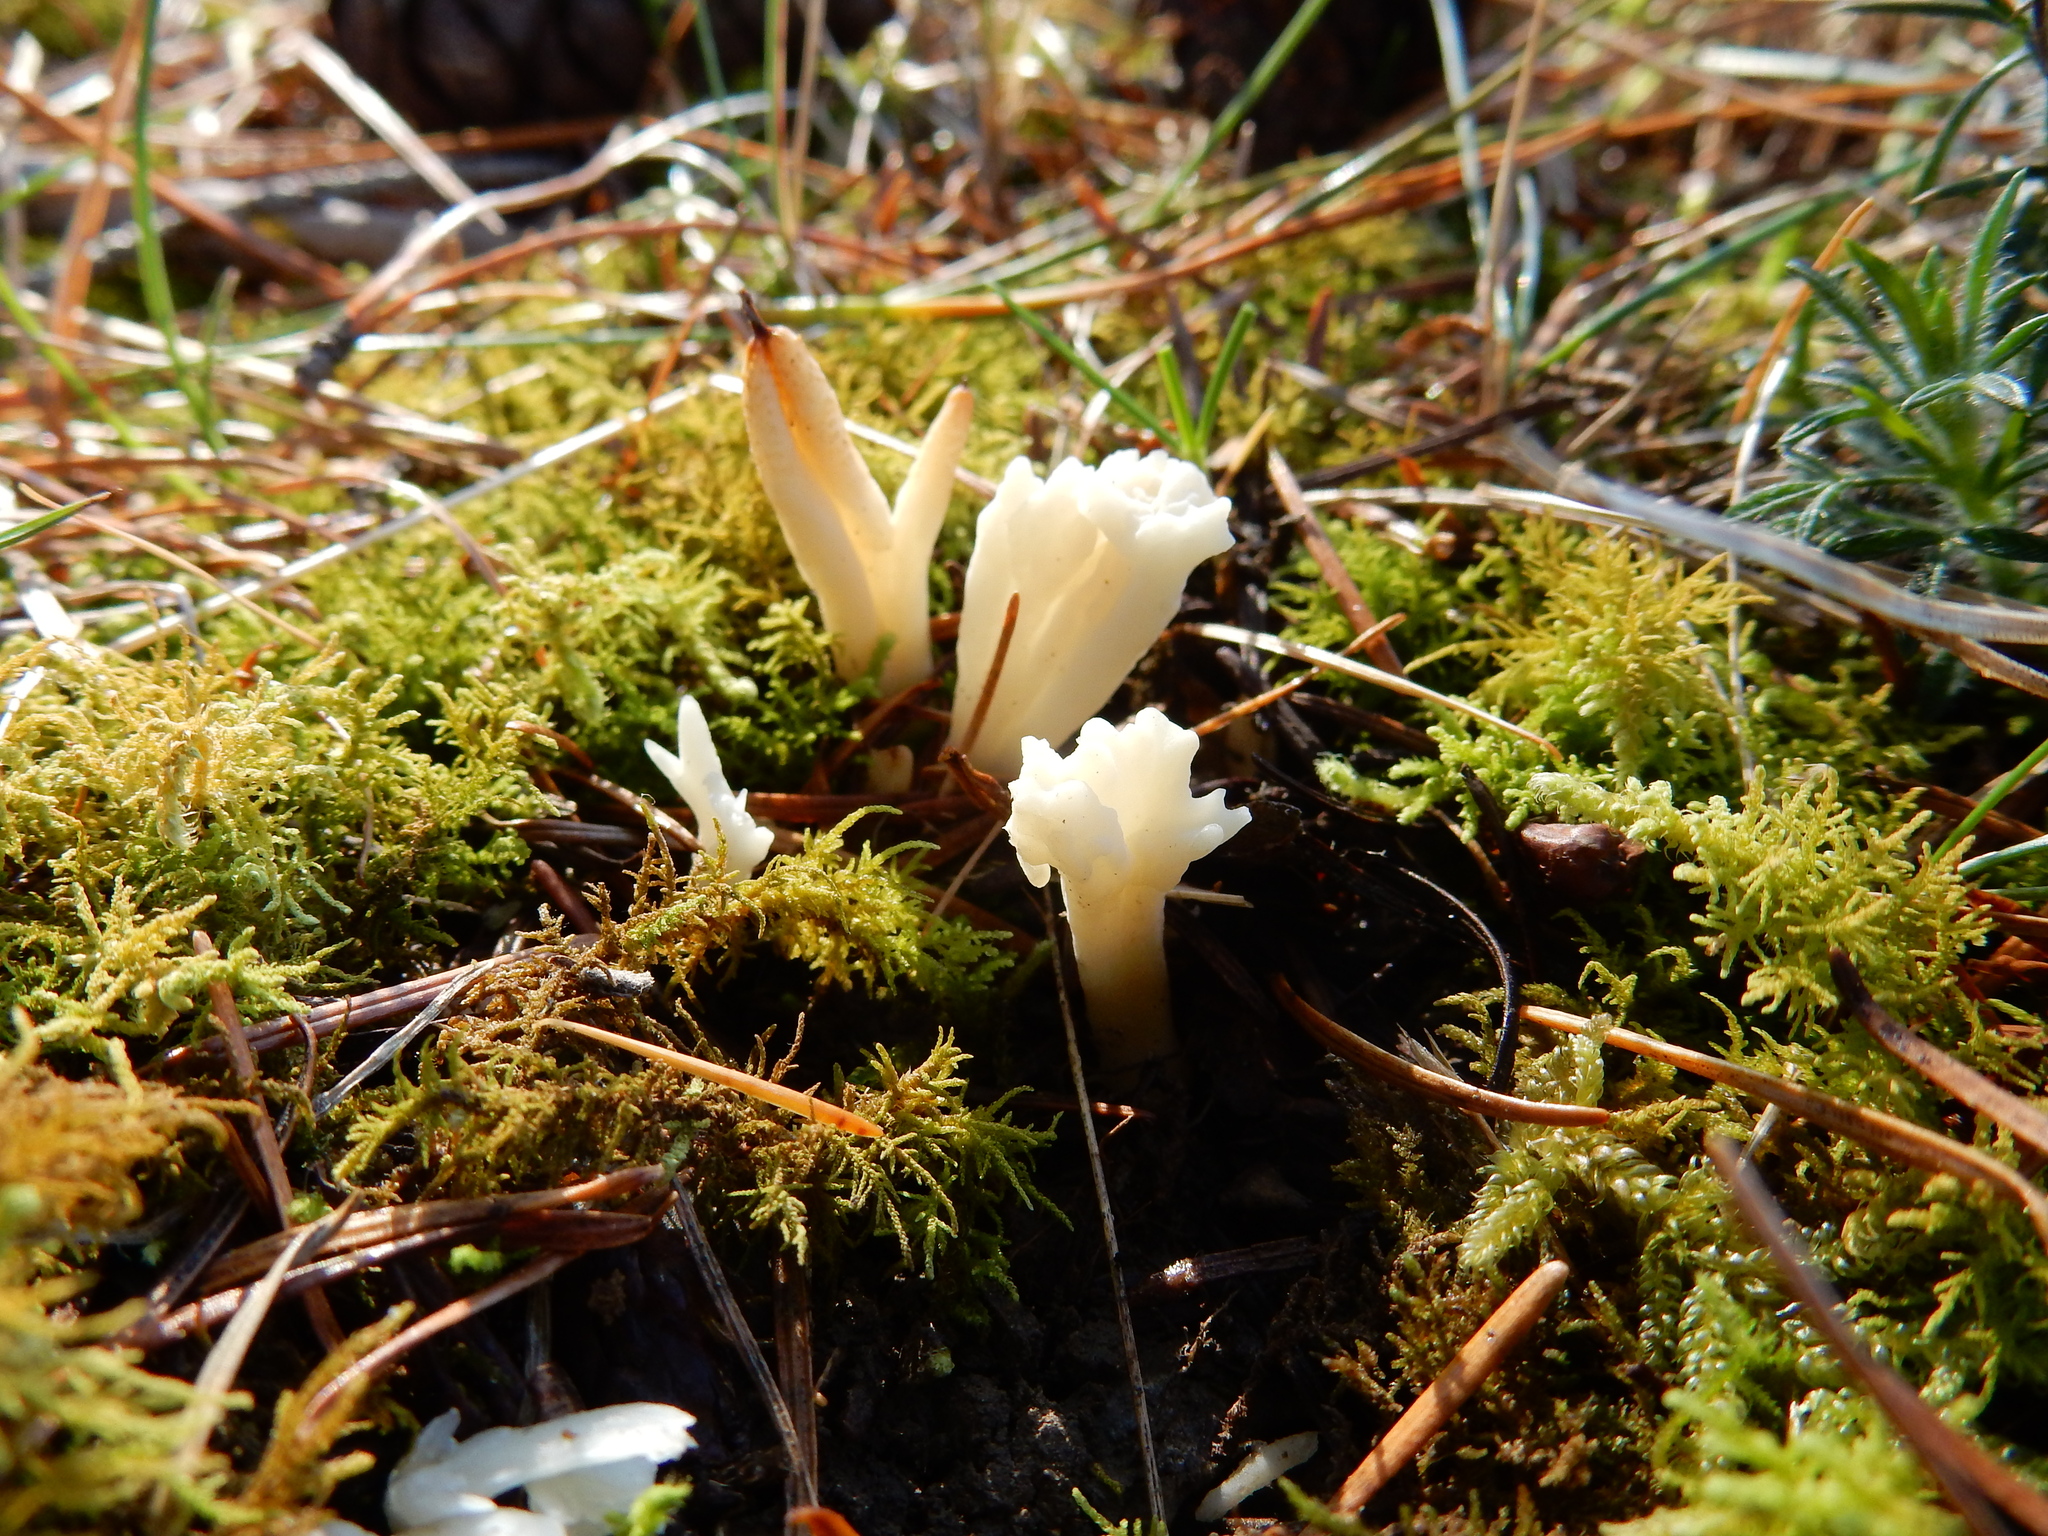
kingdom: Fungi
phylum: Basidiomycota
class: Agaricomycetes
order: Cantharellales
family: Hydnaceae
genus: Clavulina
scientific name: Clavulina rugosa
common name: Wrinkled club
